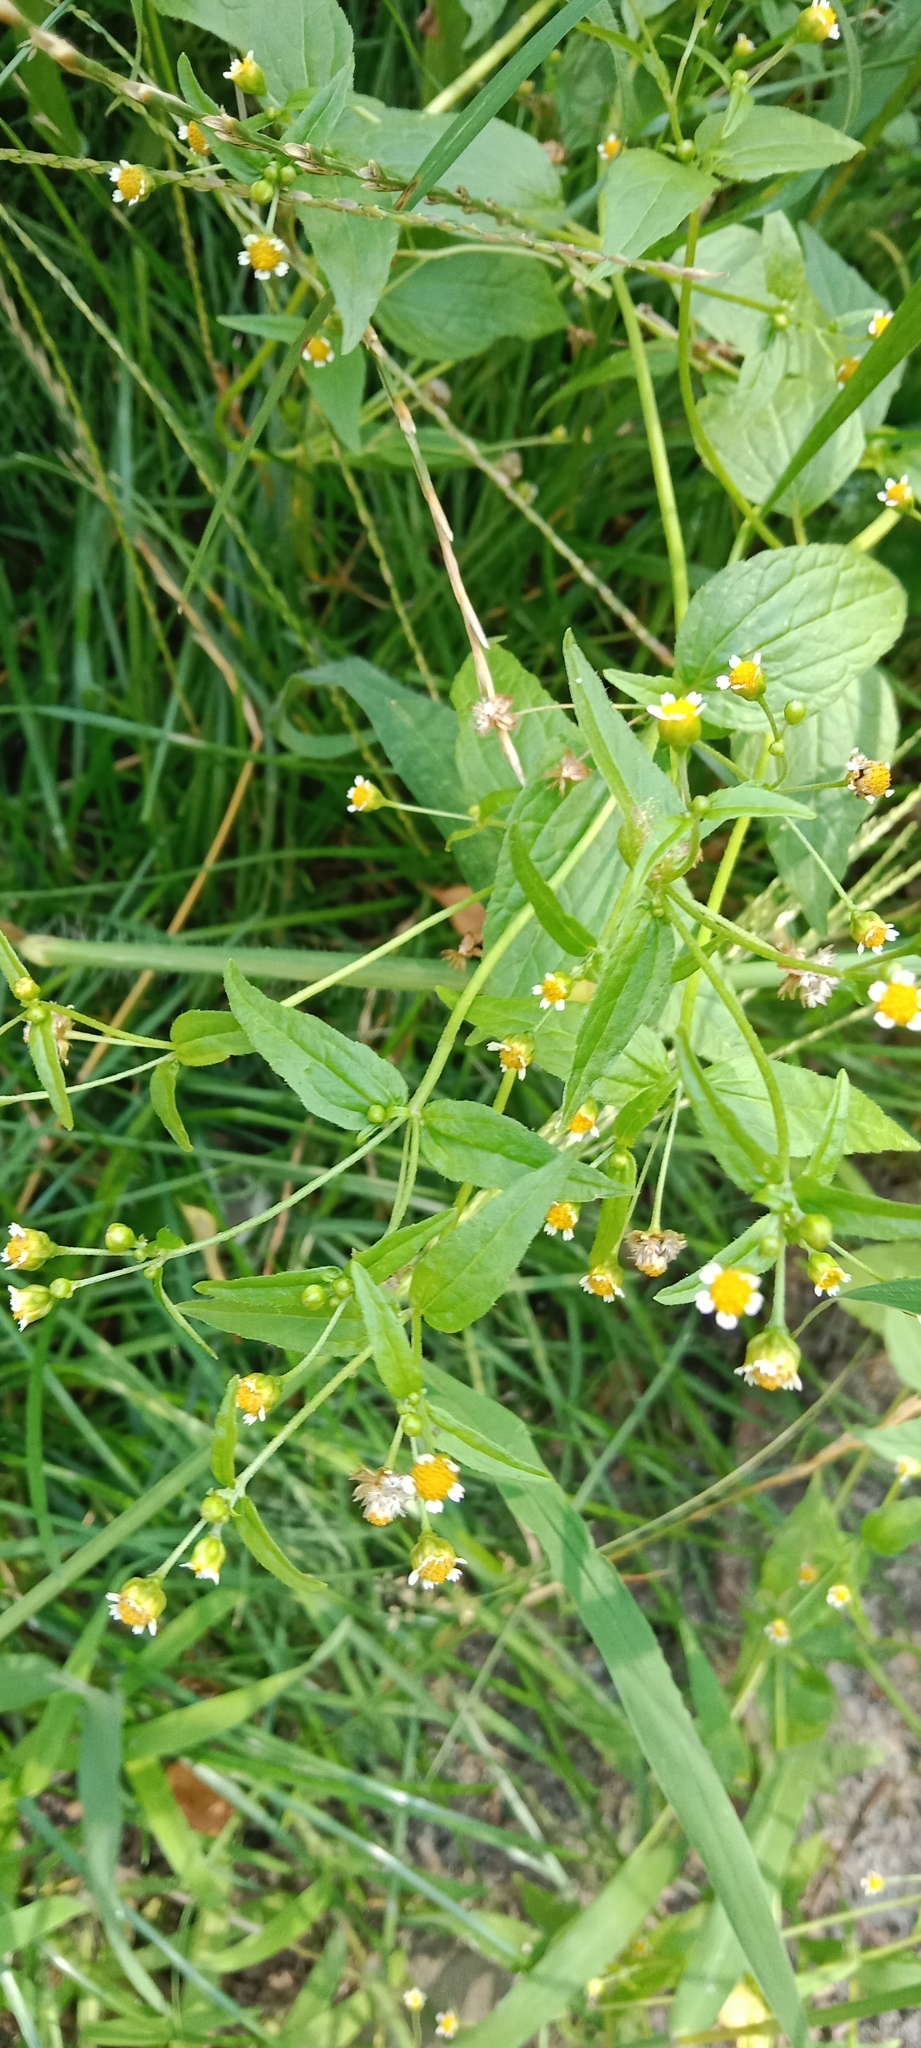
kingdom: Plantae
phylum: Tracheophyta
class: Magnoliopsida
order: Asterales
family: Asteraceae
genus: Galinsoga
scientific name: Galinsoga parviflora
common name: Gallant soldier
